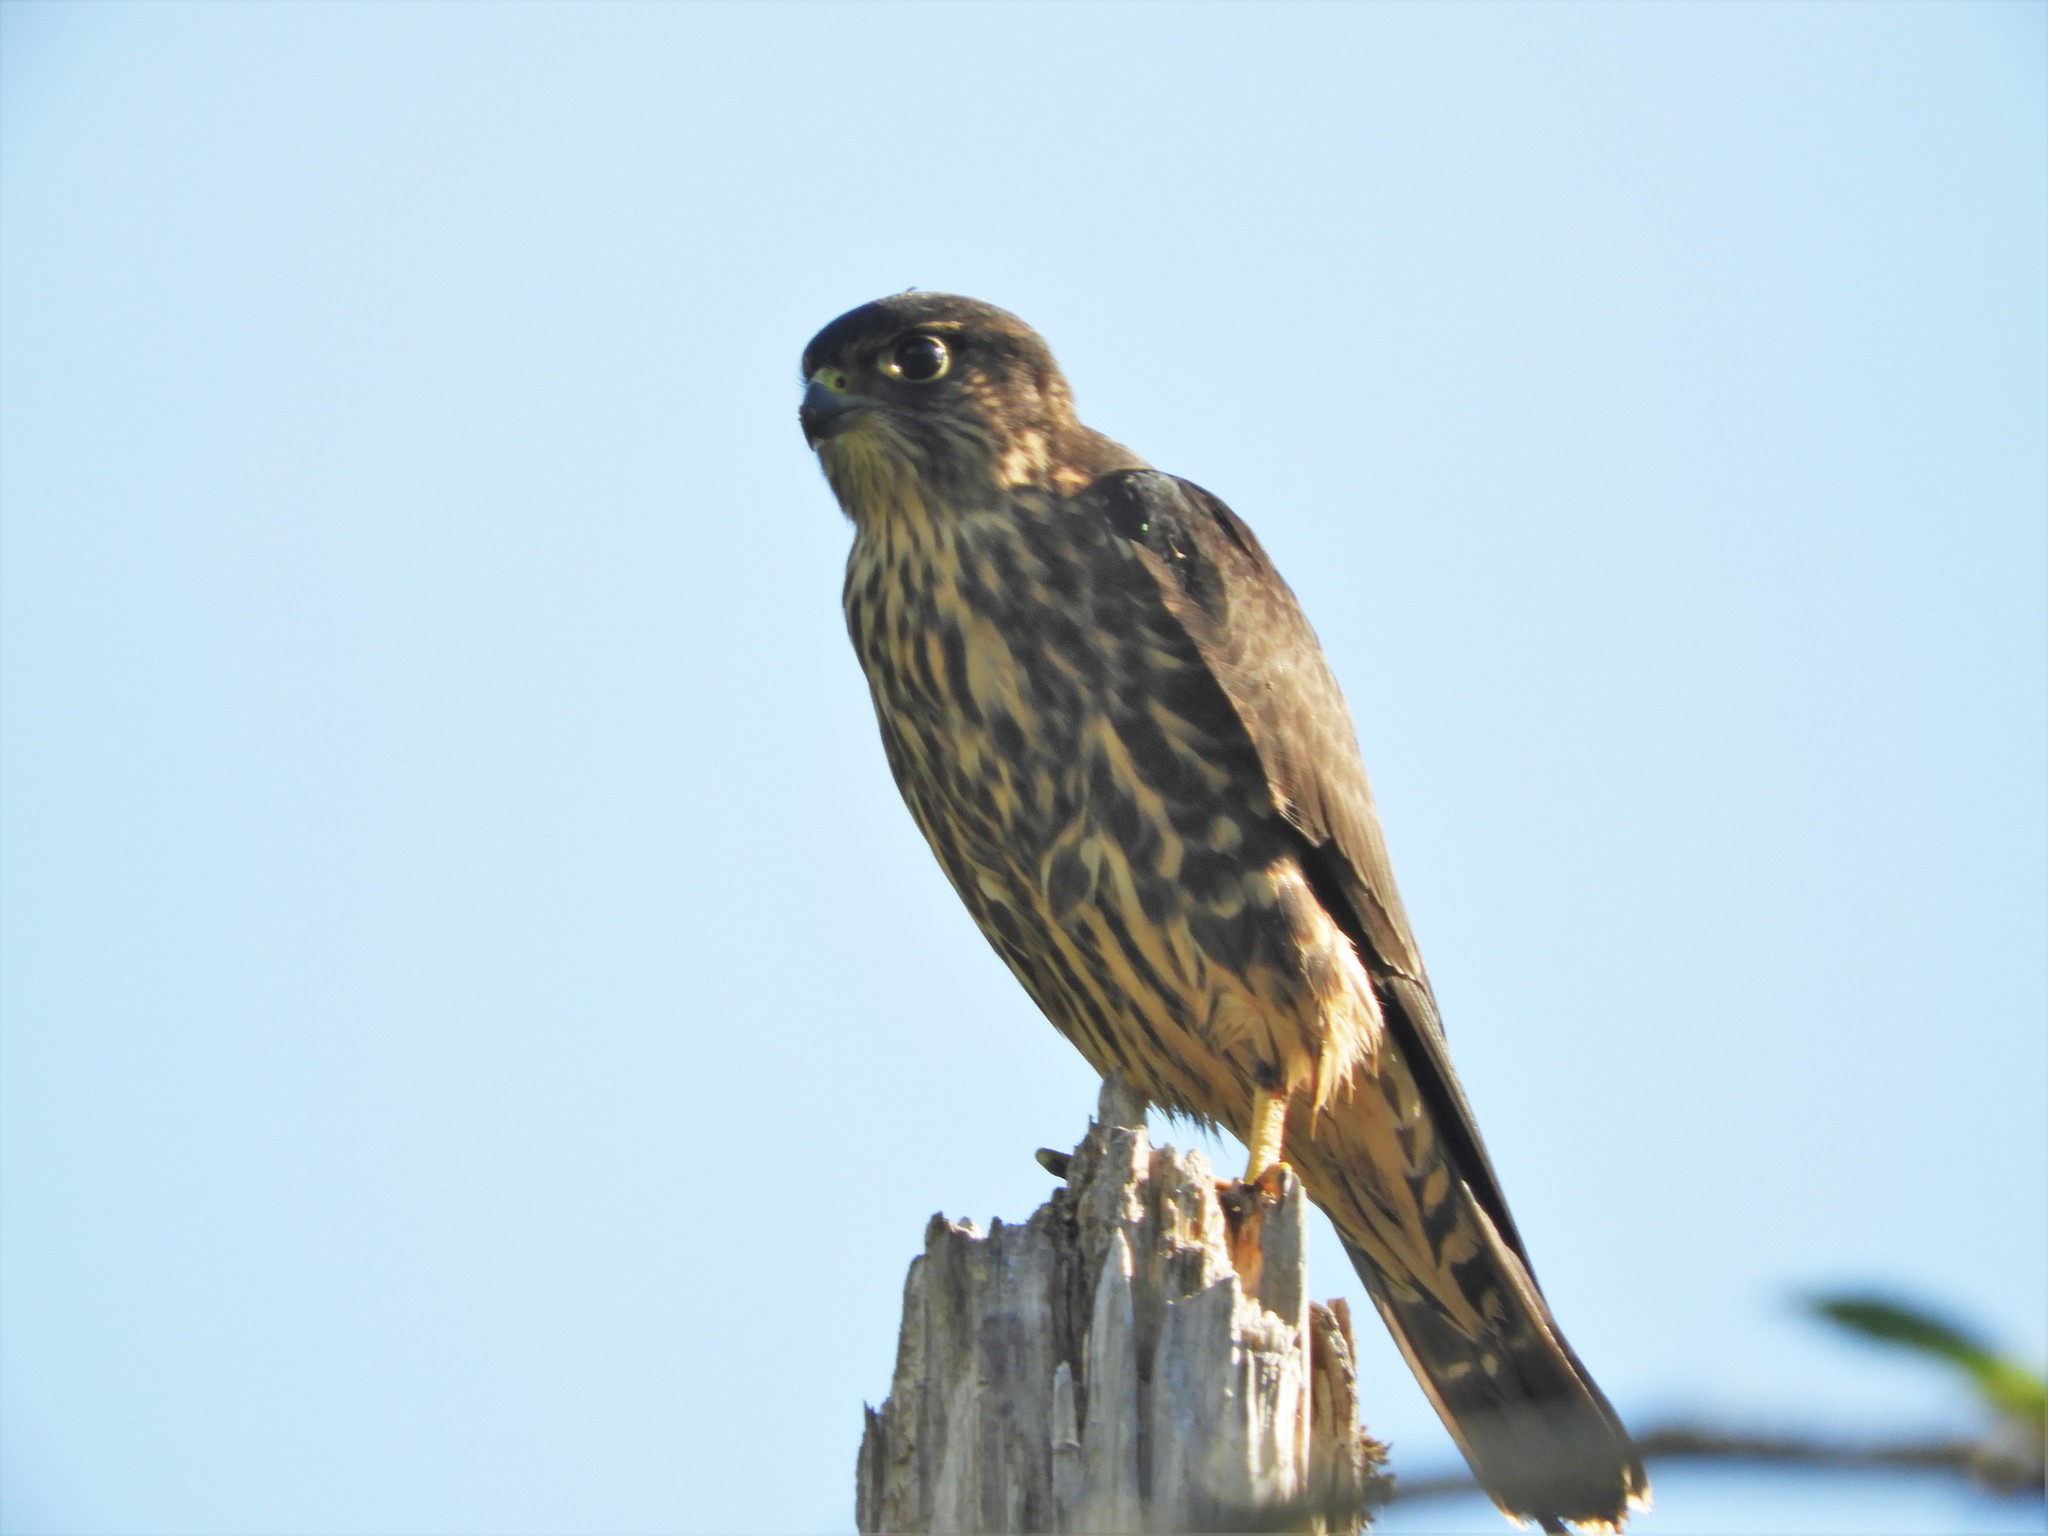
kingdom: Animalia
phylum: Chordata
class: Aves
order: Falconiformes
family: Falconidae
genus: Falco
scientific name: Falco columbarius
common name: Merlin
